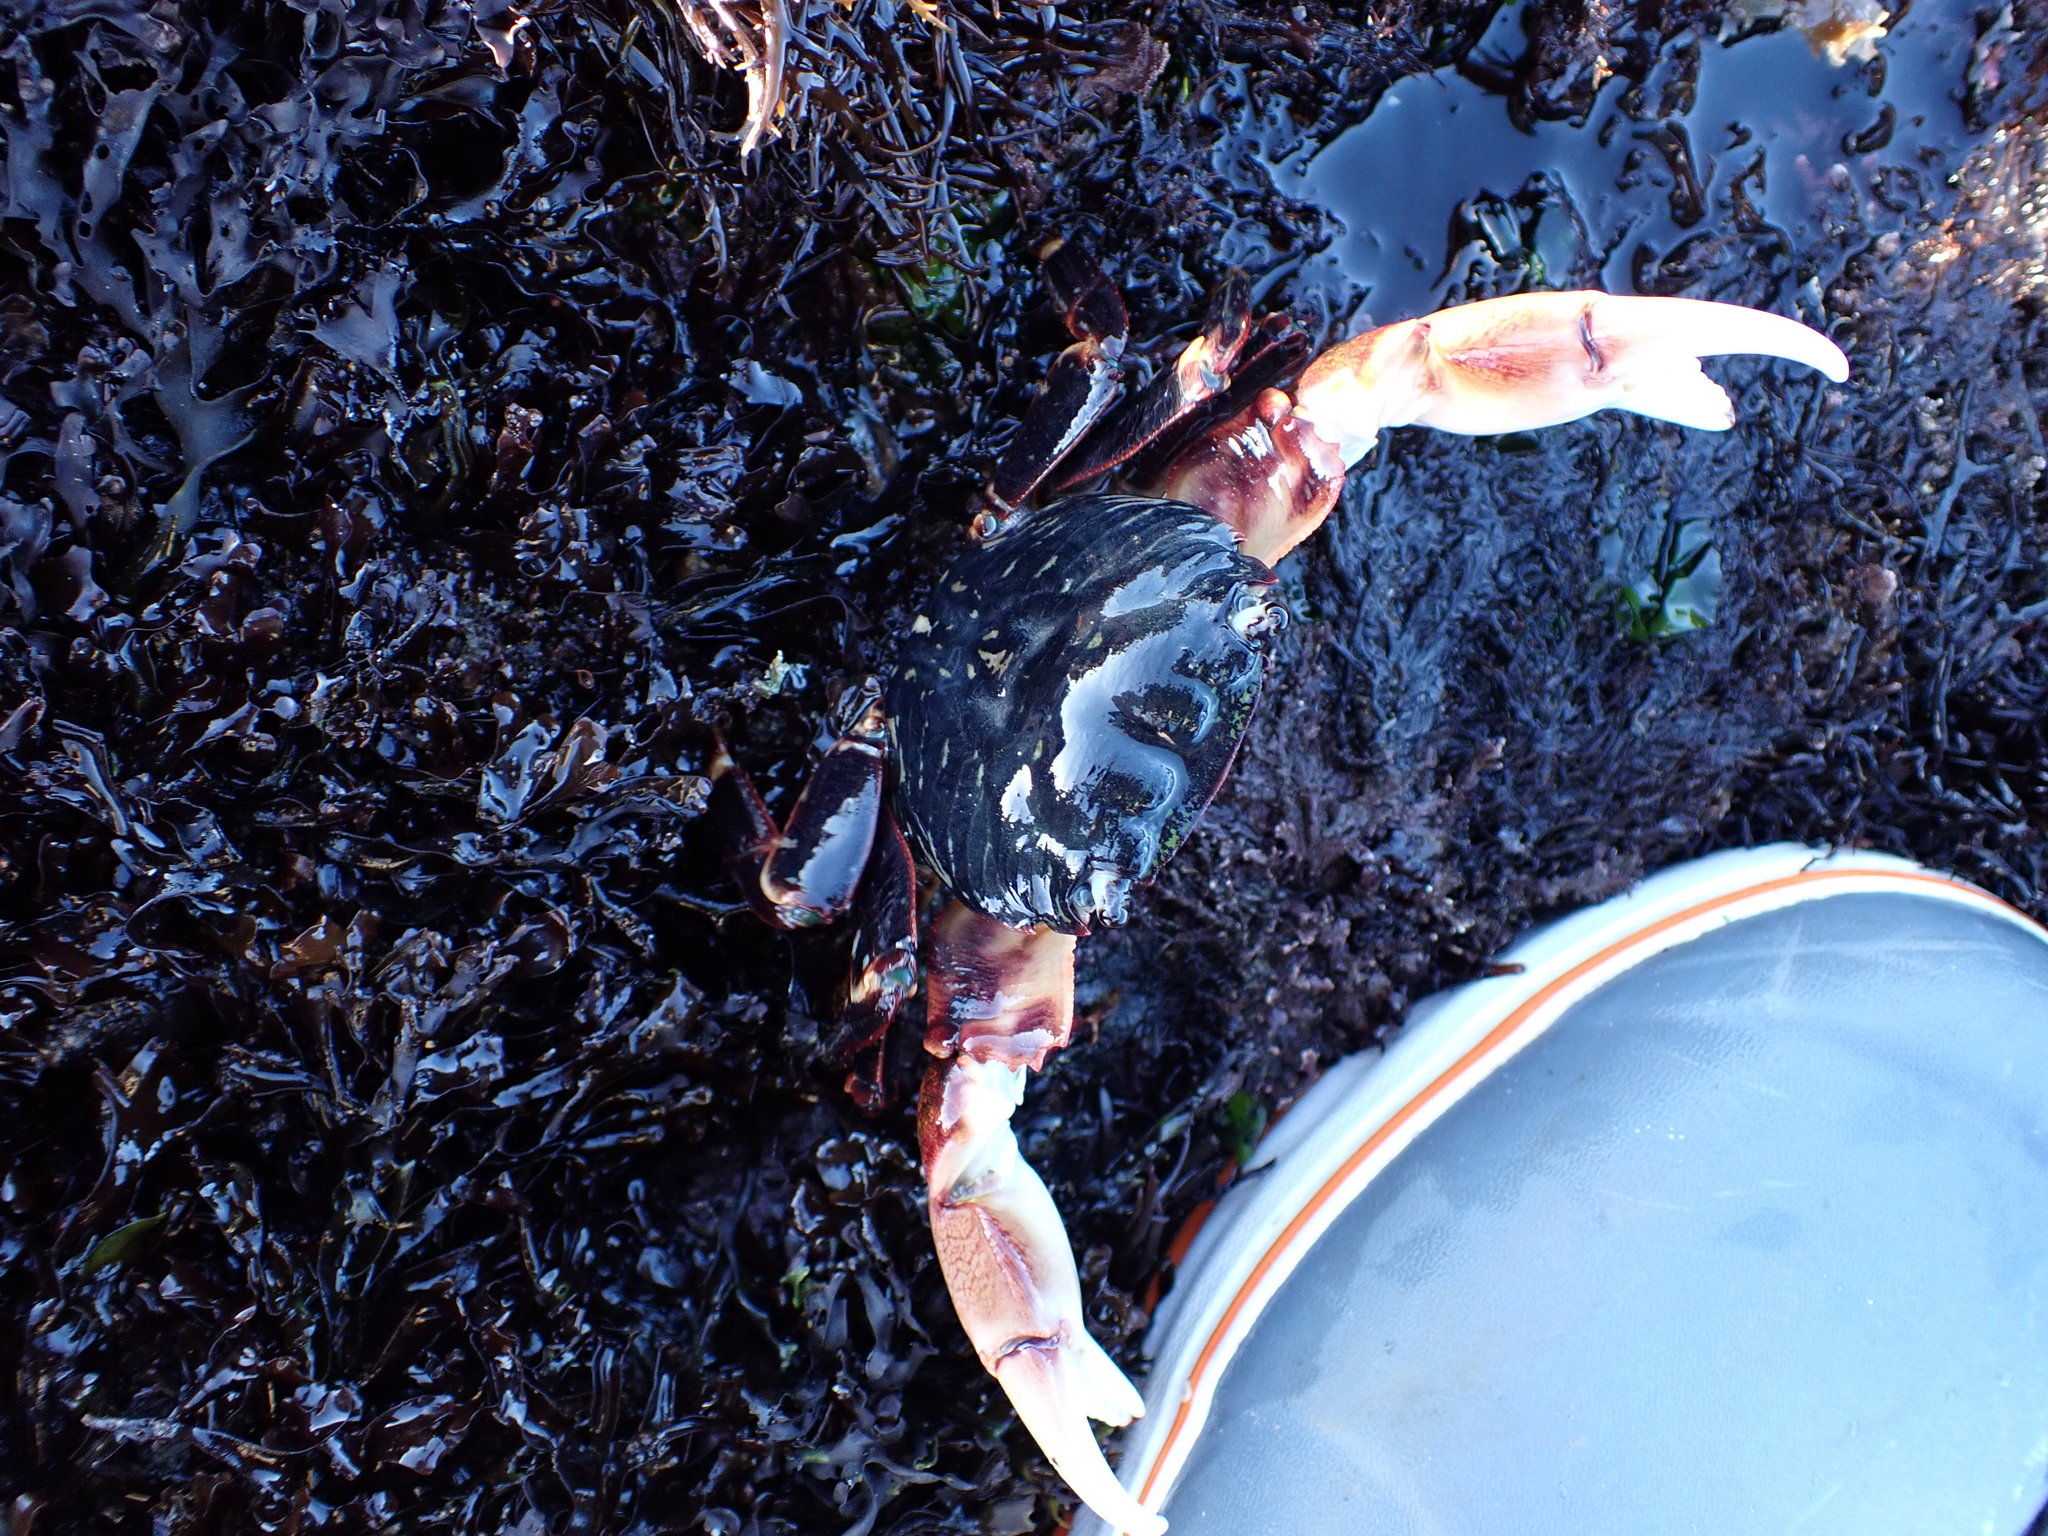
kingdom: Animalia
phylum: Arthropoda
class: Malacostraca
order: Decapoda
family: Grapsidae
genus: Pachygrapsus
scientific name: Pachygrapsus crassipes
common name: Striped shore crab
